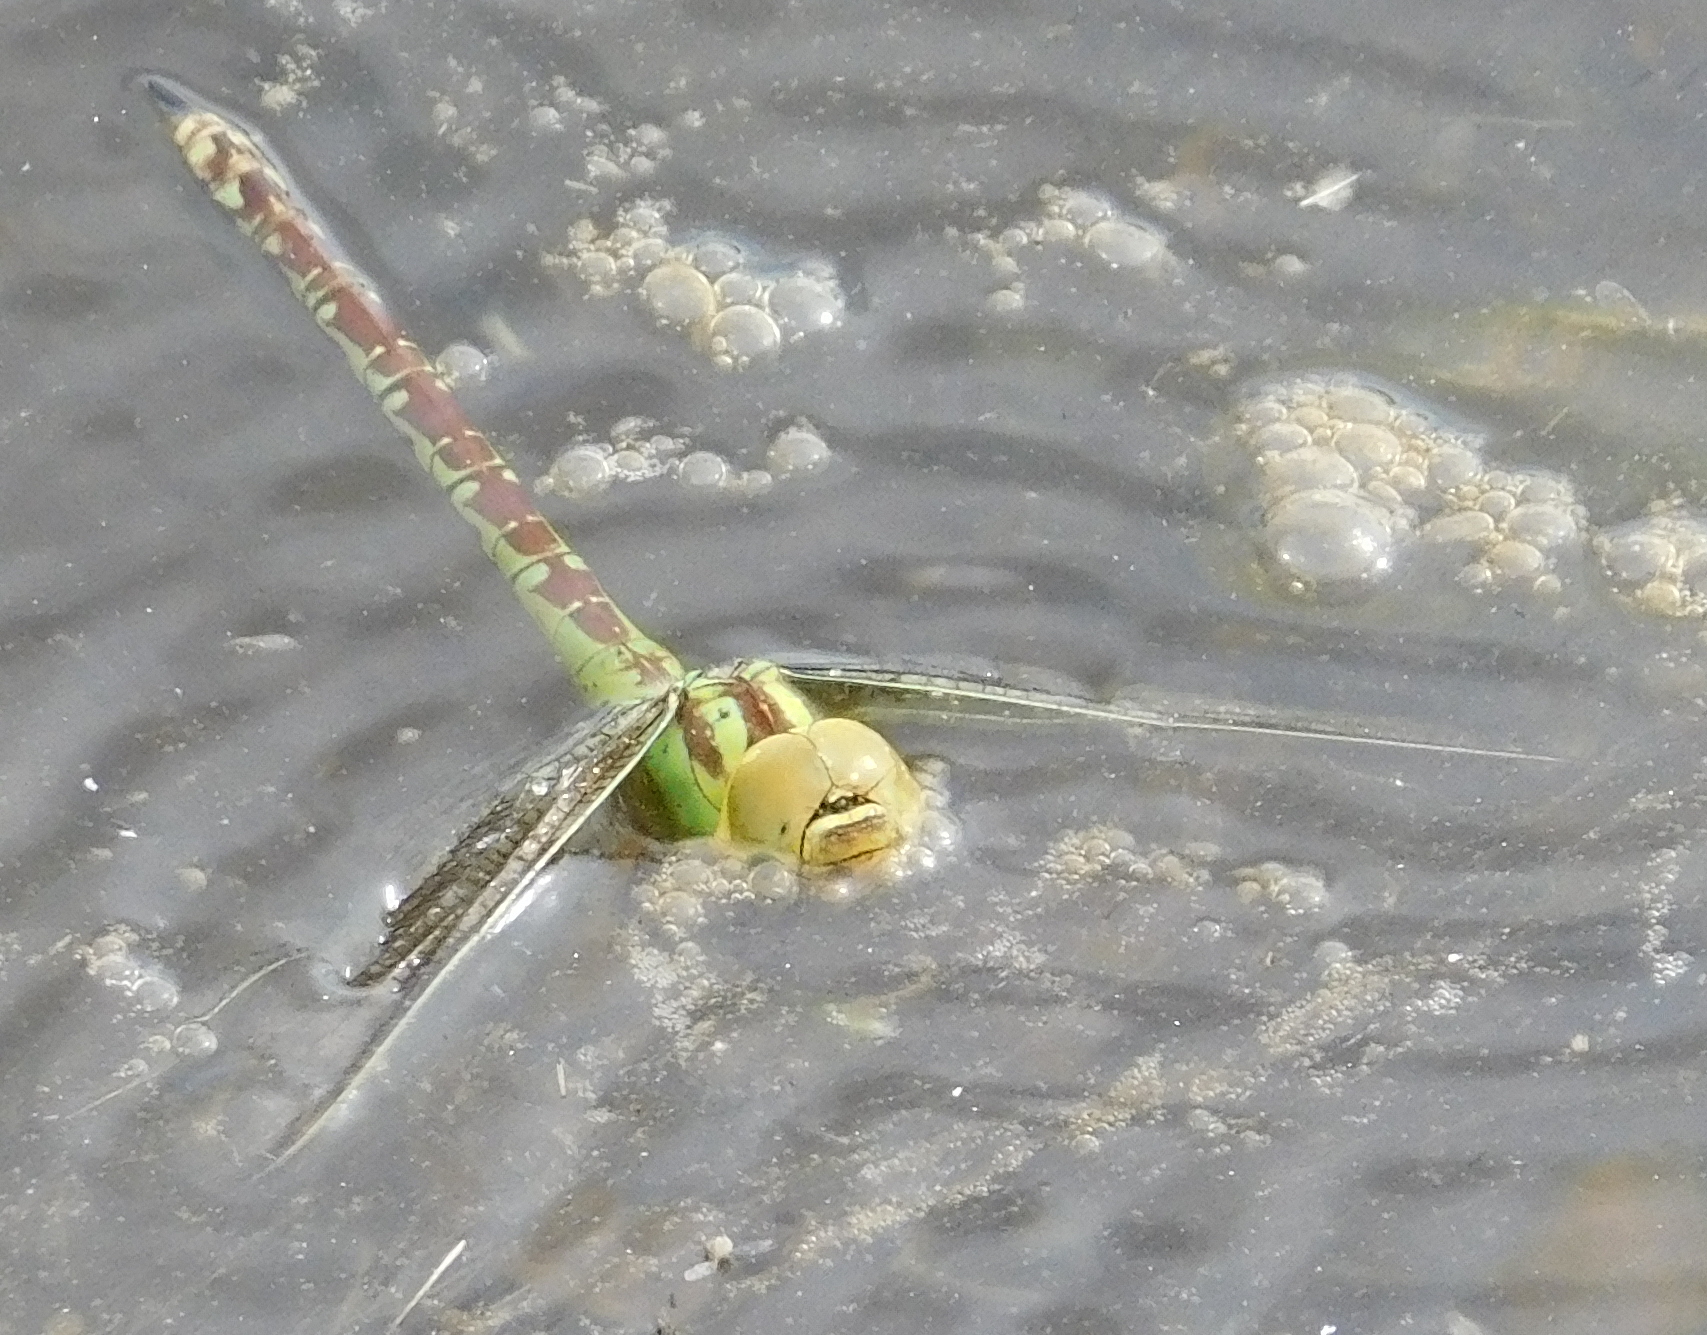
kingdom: Animalia
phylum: Arthropoda
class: Insecta
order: Odonata
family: Aeshnidae
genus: Aeshna
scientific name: Aeshna viridis
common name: Green hawker
